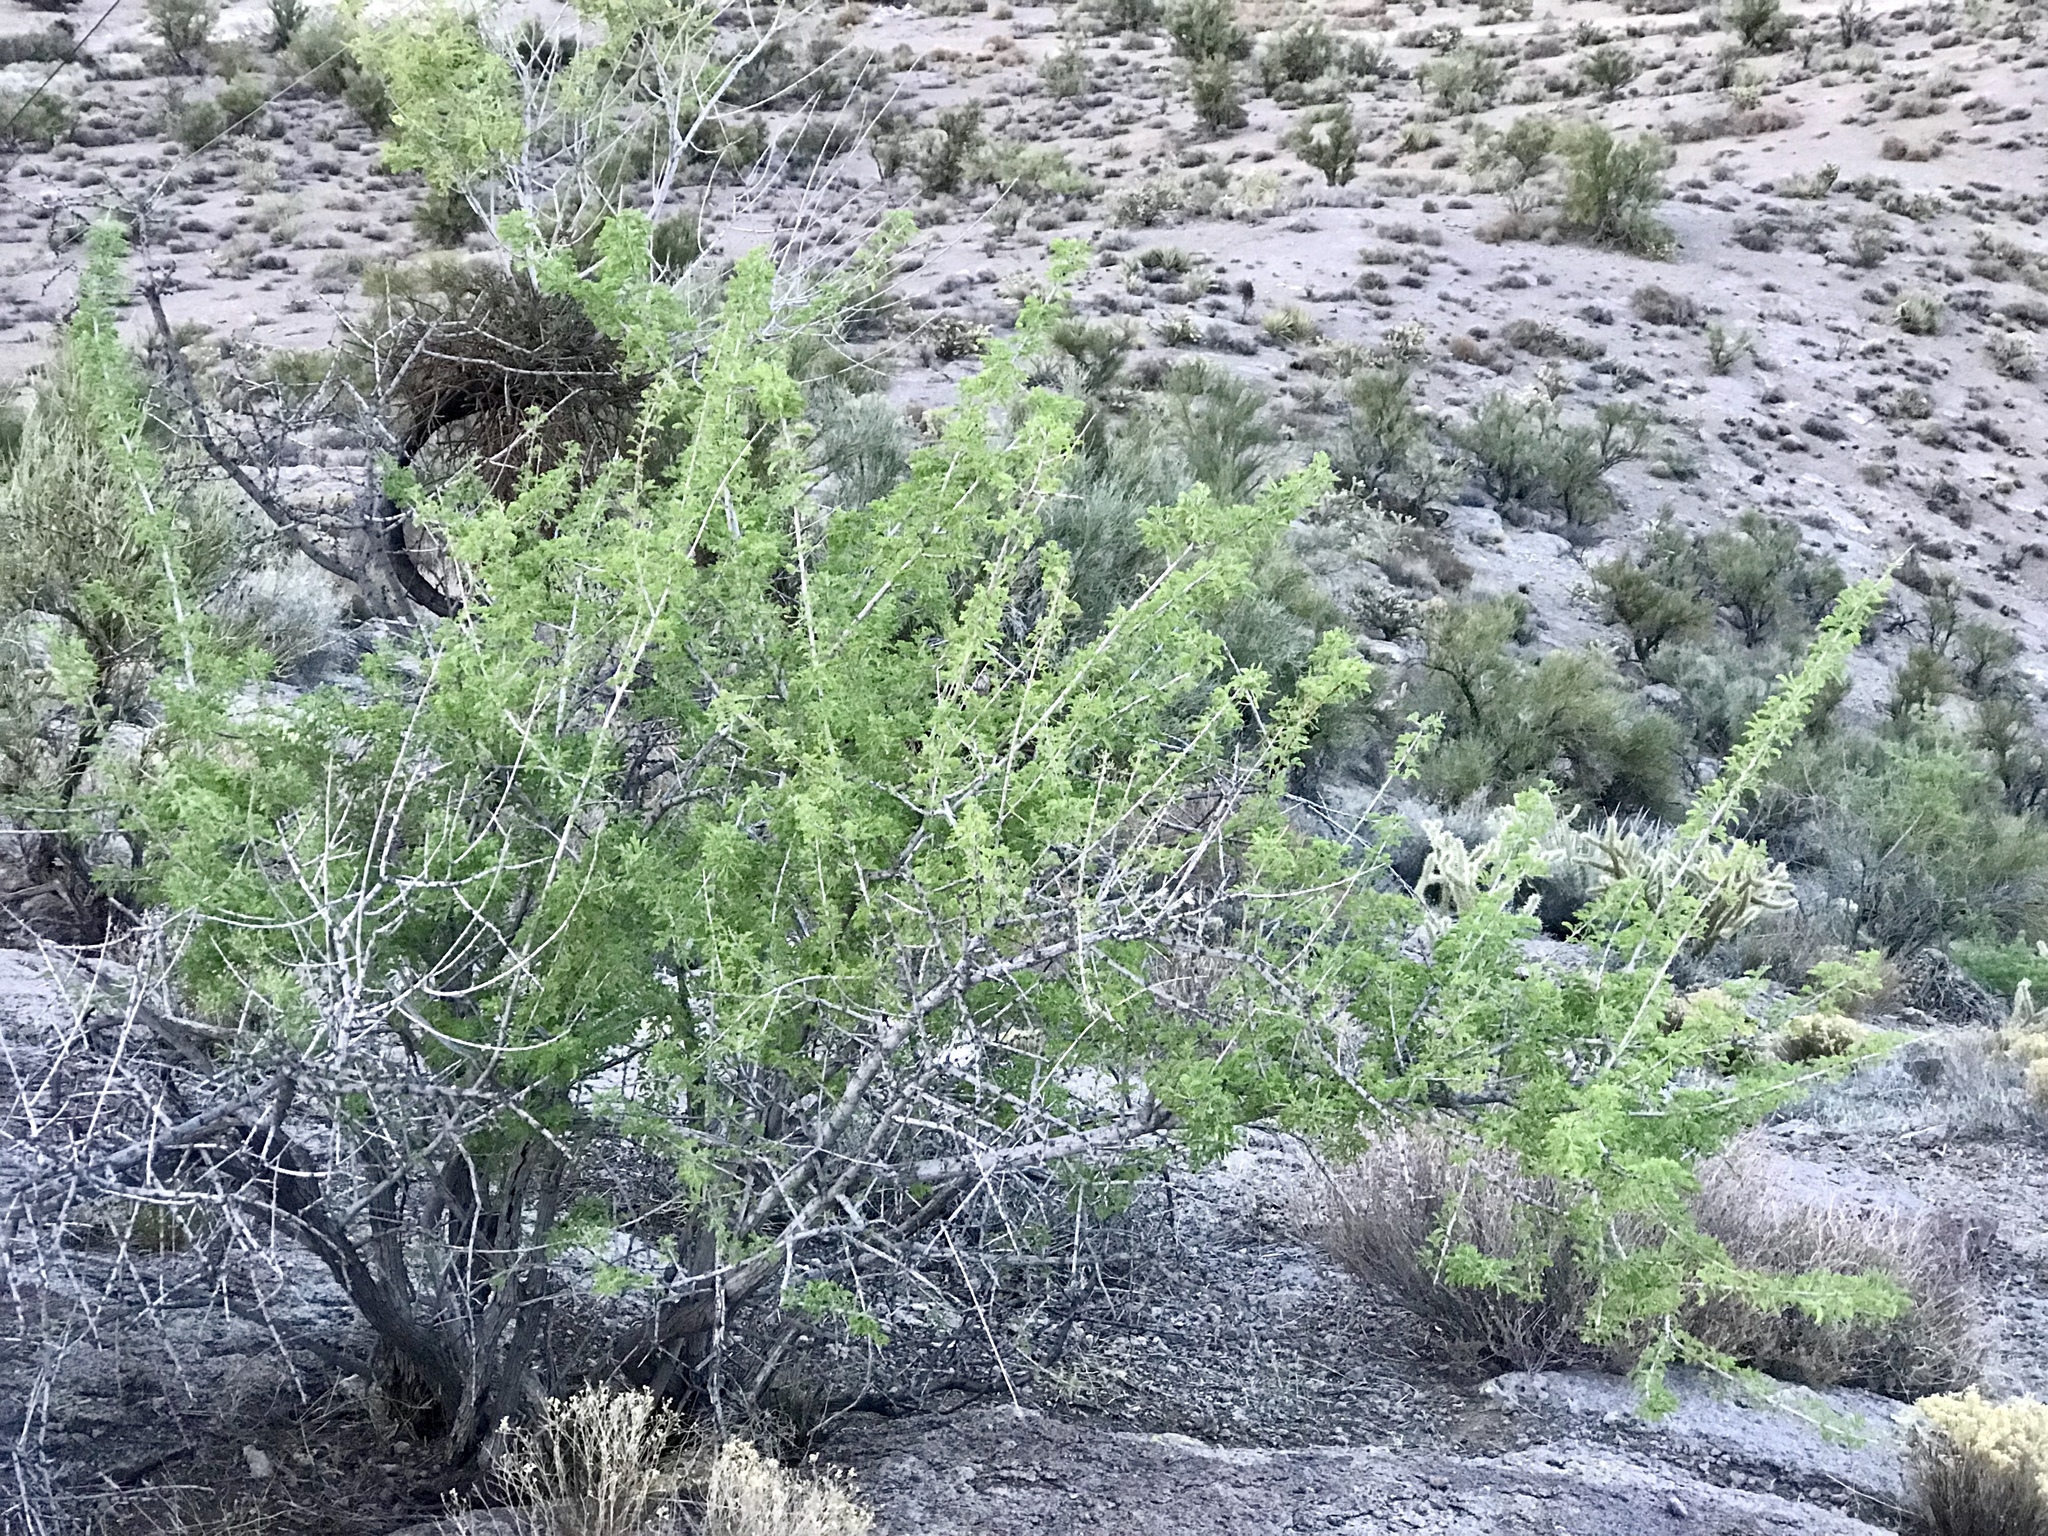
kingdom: Plantae
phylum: Tracheophyta
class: Magnoliopsida
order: Fabales
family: Fabaceae
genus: Senegalia
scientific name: Senegalia greggii
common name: Texas-mimosa
